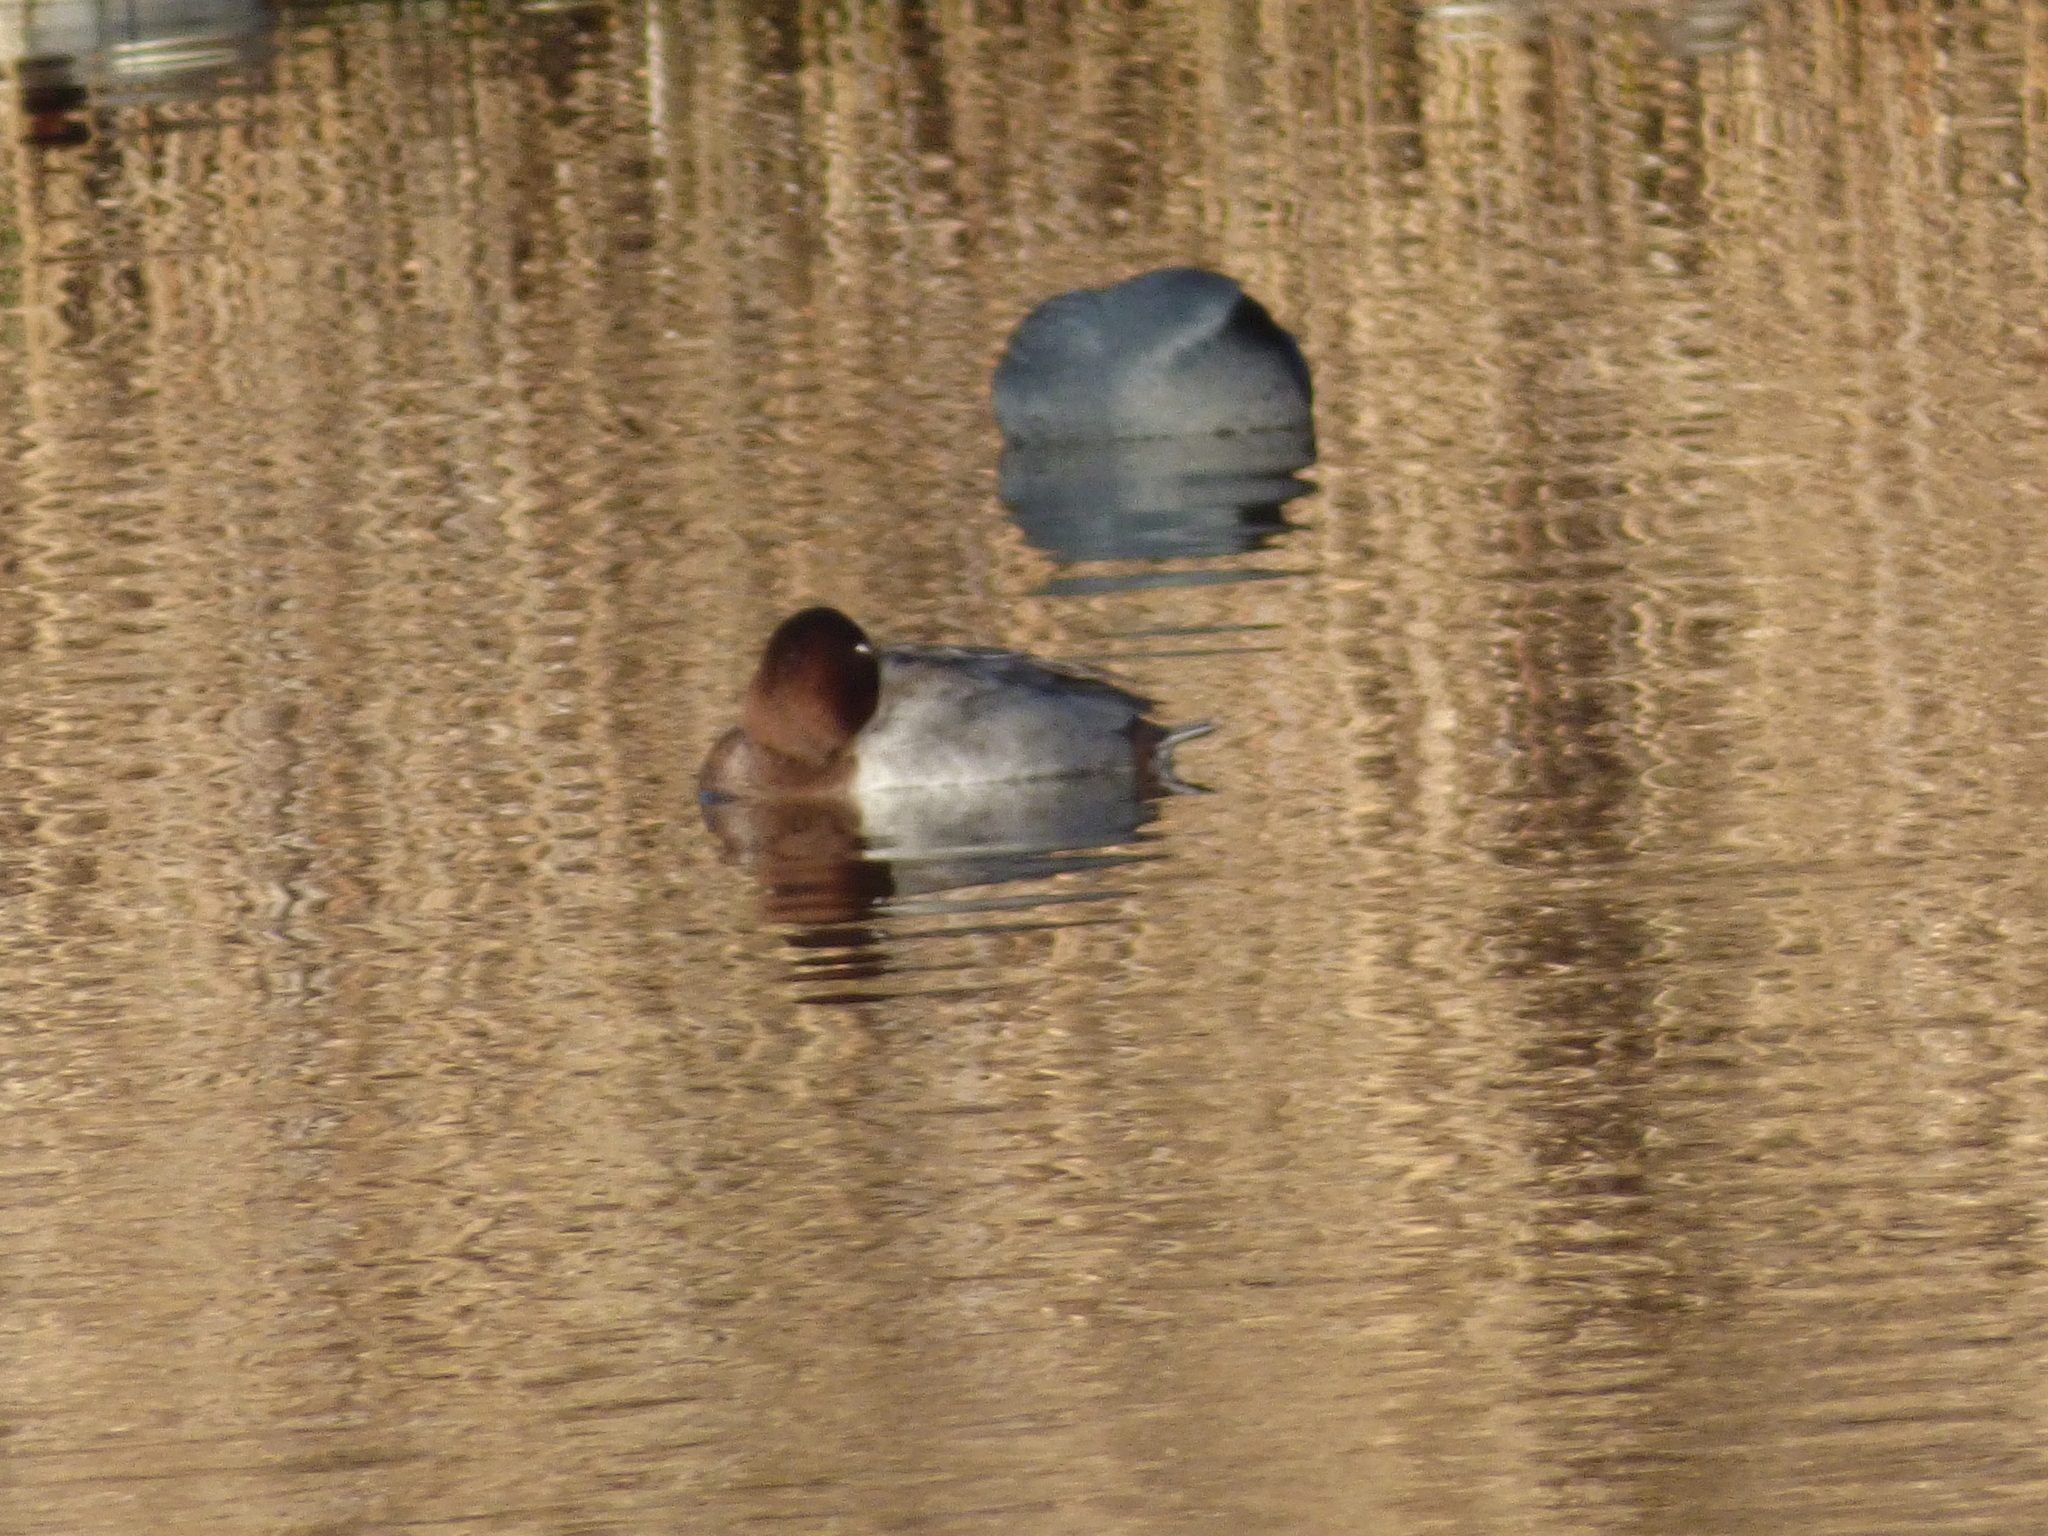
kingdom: Animalia
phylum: Chordata
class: Aves
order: Anseriformes
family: Anatidae
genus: Aythya
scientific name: Aythya ferina
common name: Common pochard
